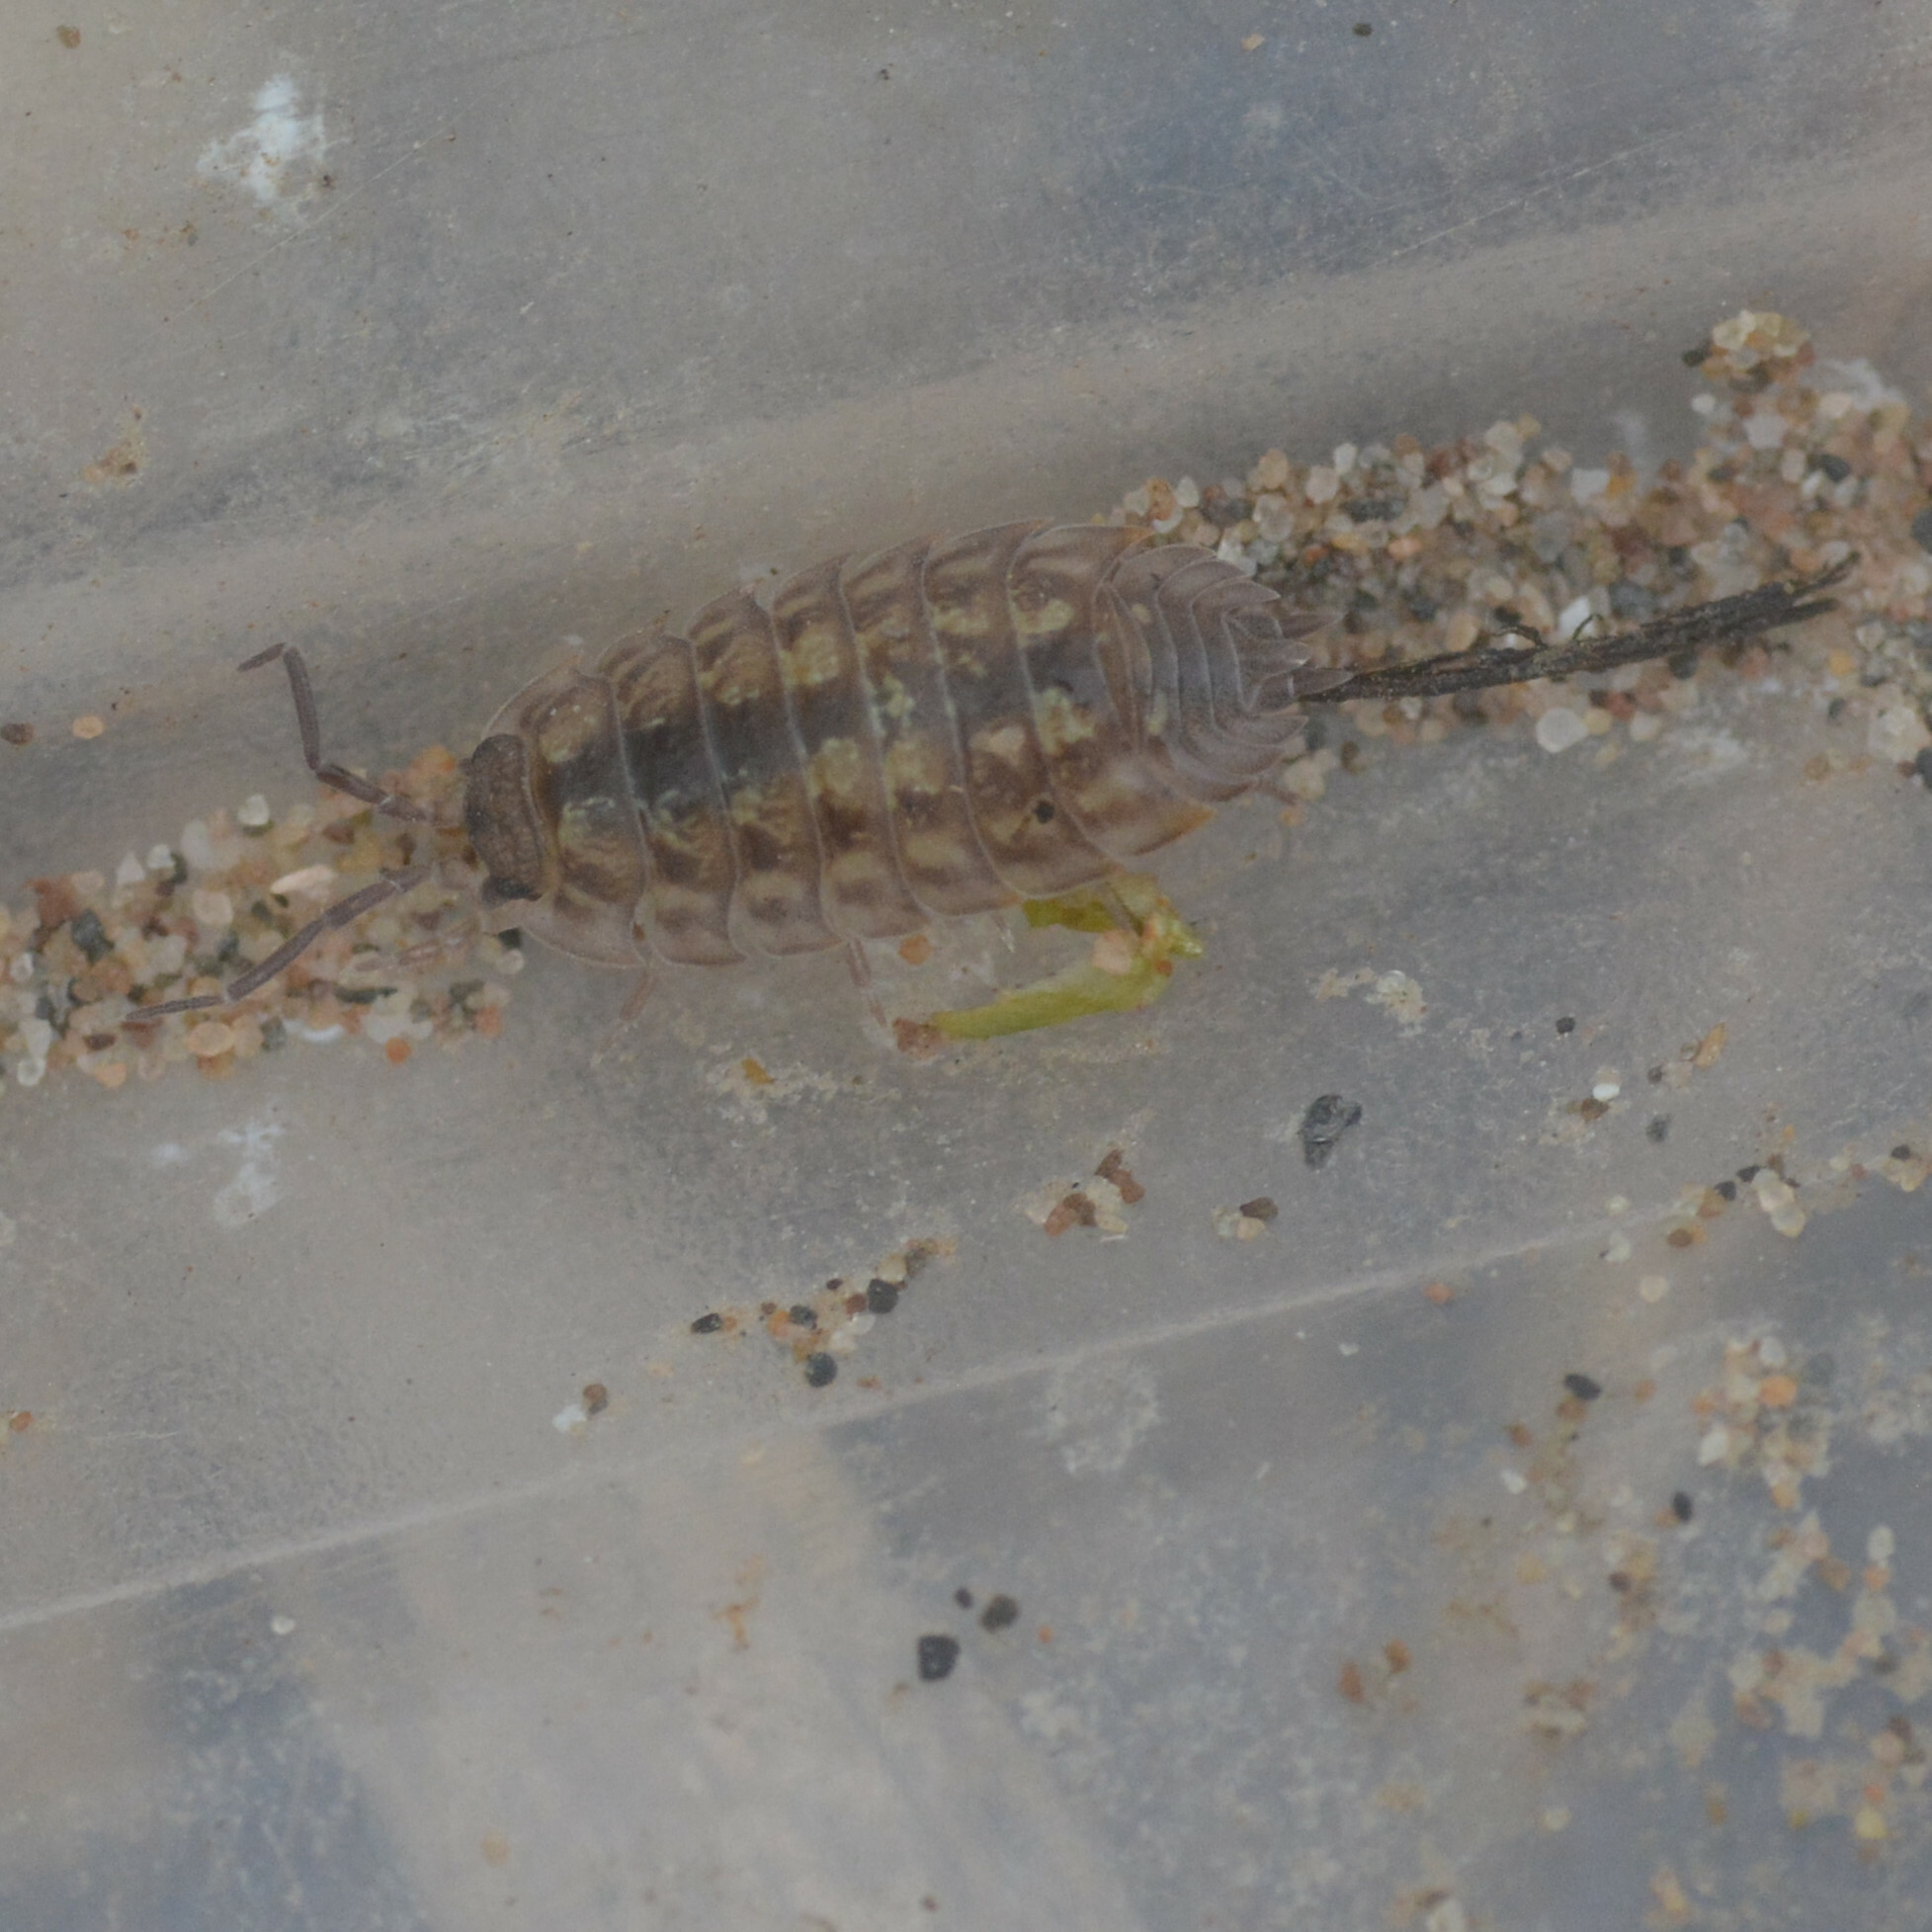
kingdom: Animalia
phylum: Arthropoda
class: Malacostraca
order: Isopoda
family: Oniscidae
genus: Oniscus
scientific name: Oniscus asellus
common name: Common shiny woodlouse
